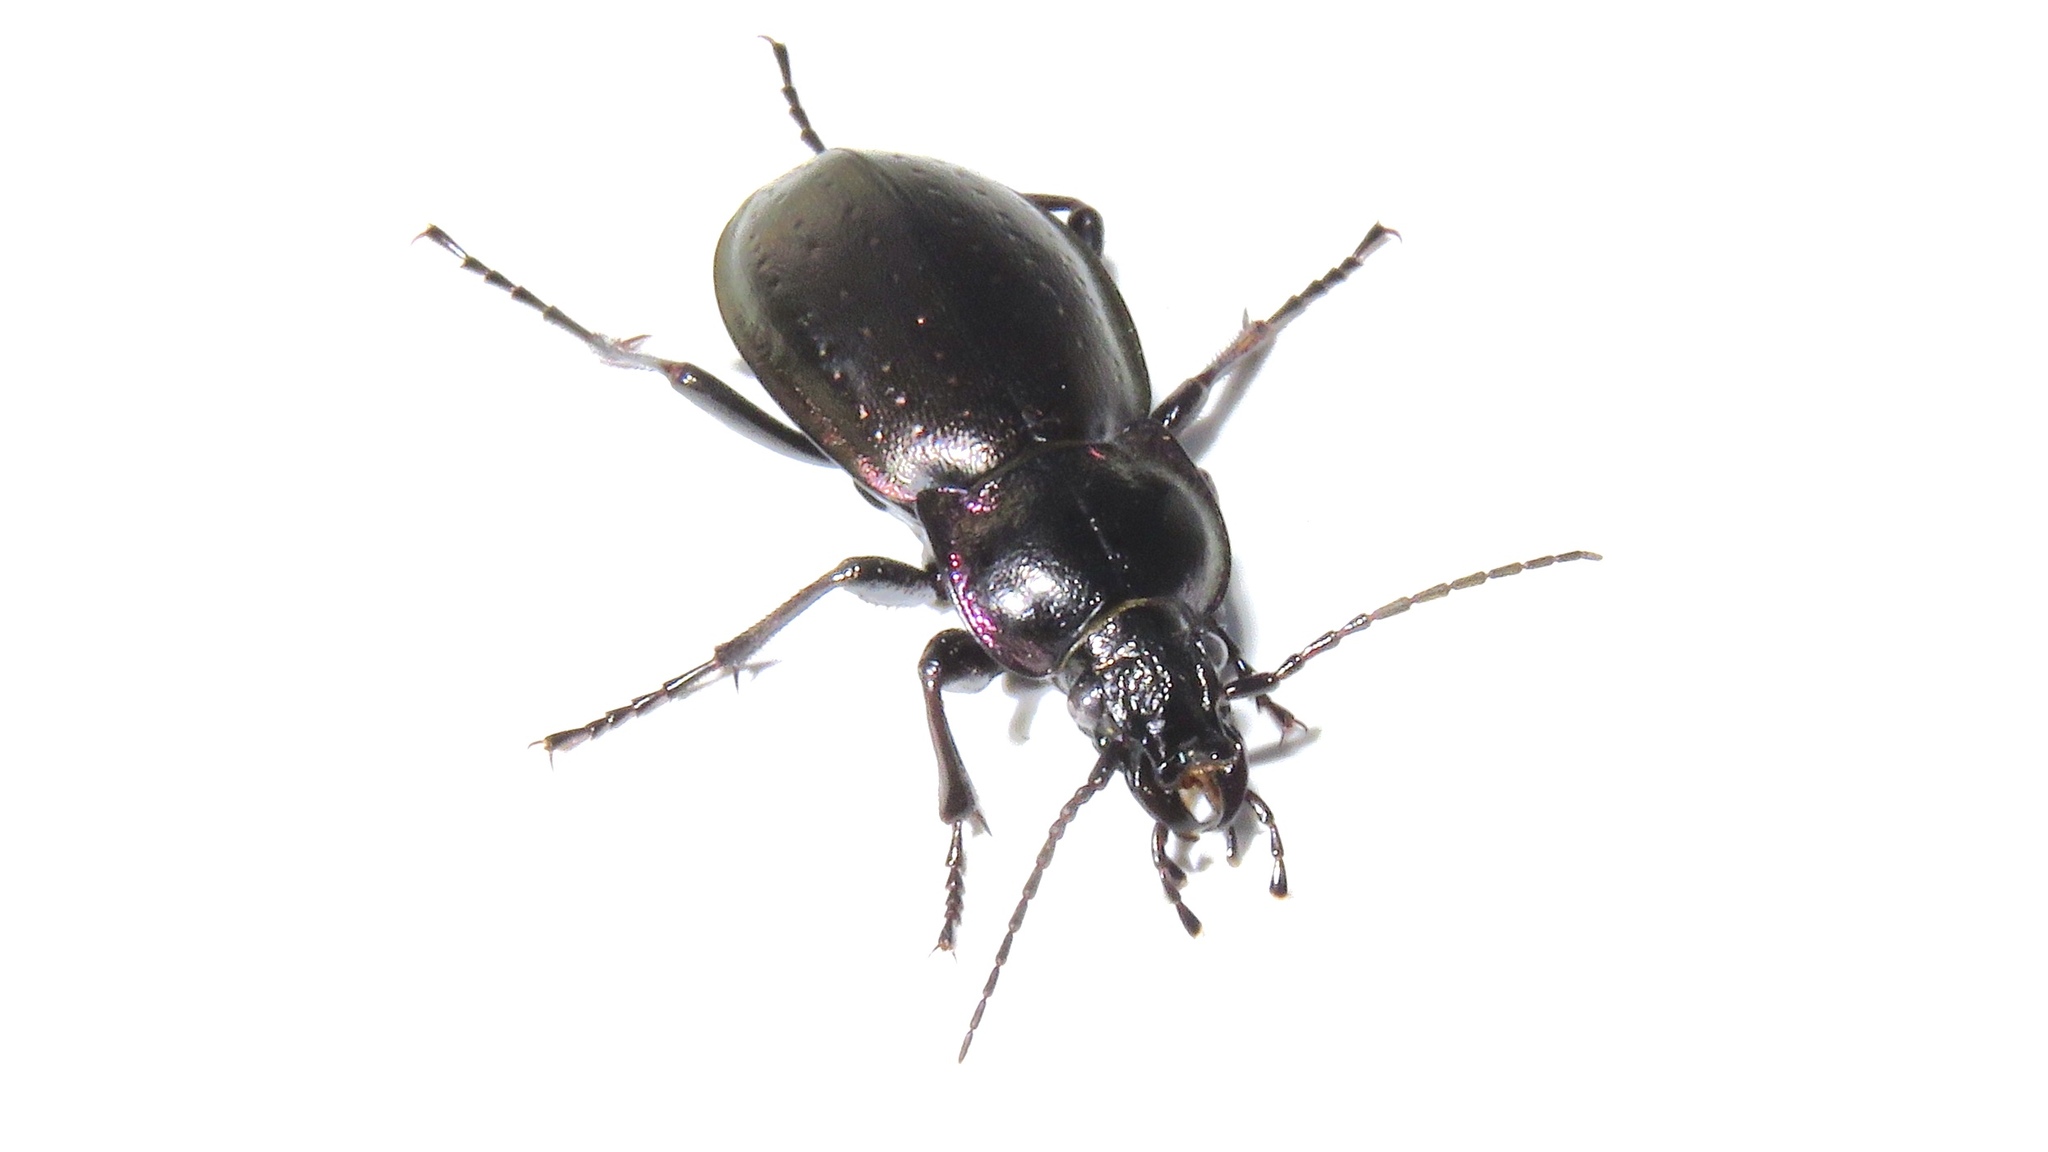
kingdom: Animalia
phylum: Arthropoda
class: Insecta
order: Coleoptera
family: Carabidae
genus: Carabus
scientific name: Carabus nemoralis
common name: European ground beetle
